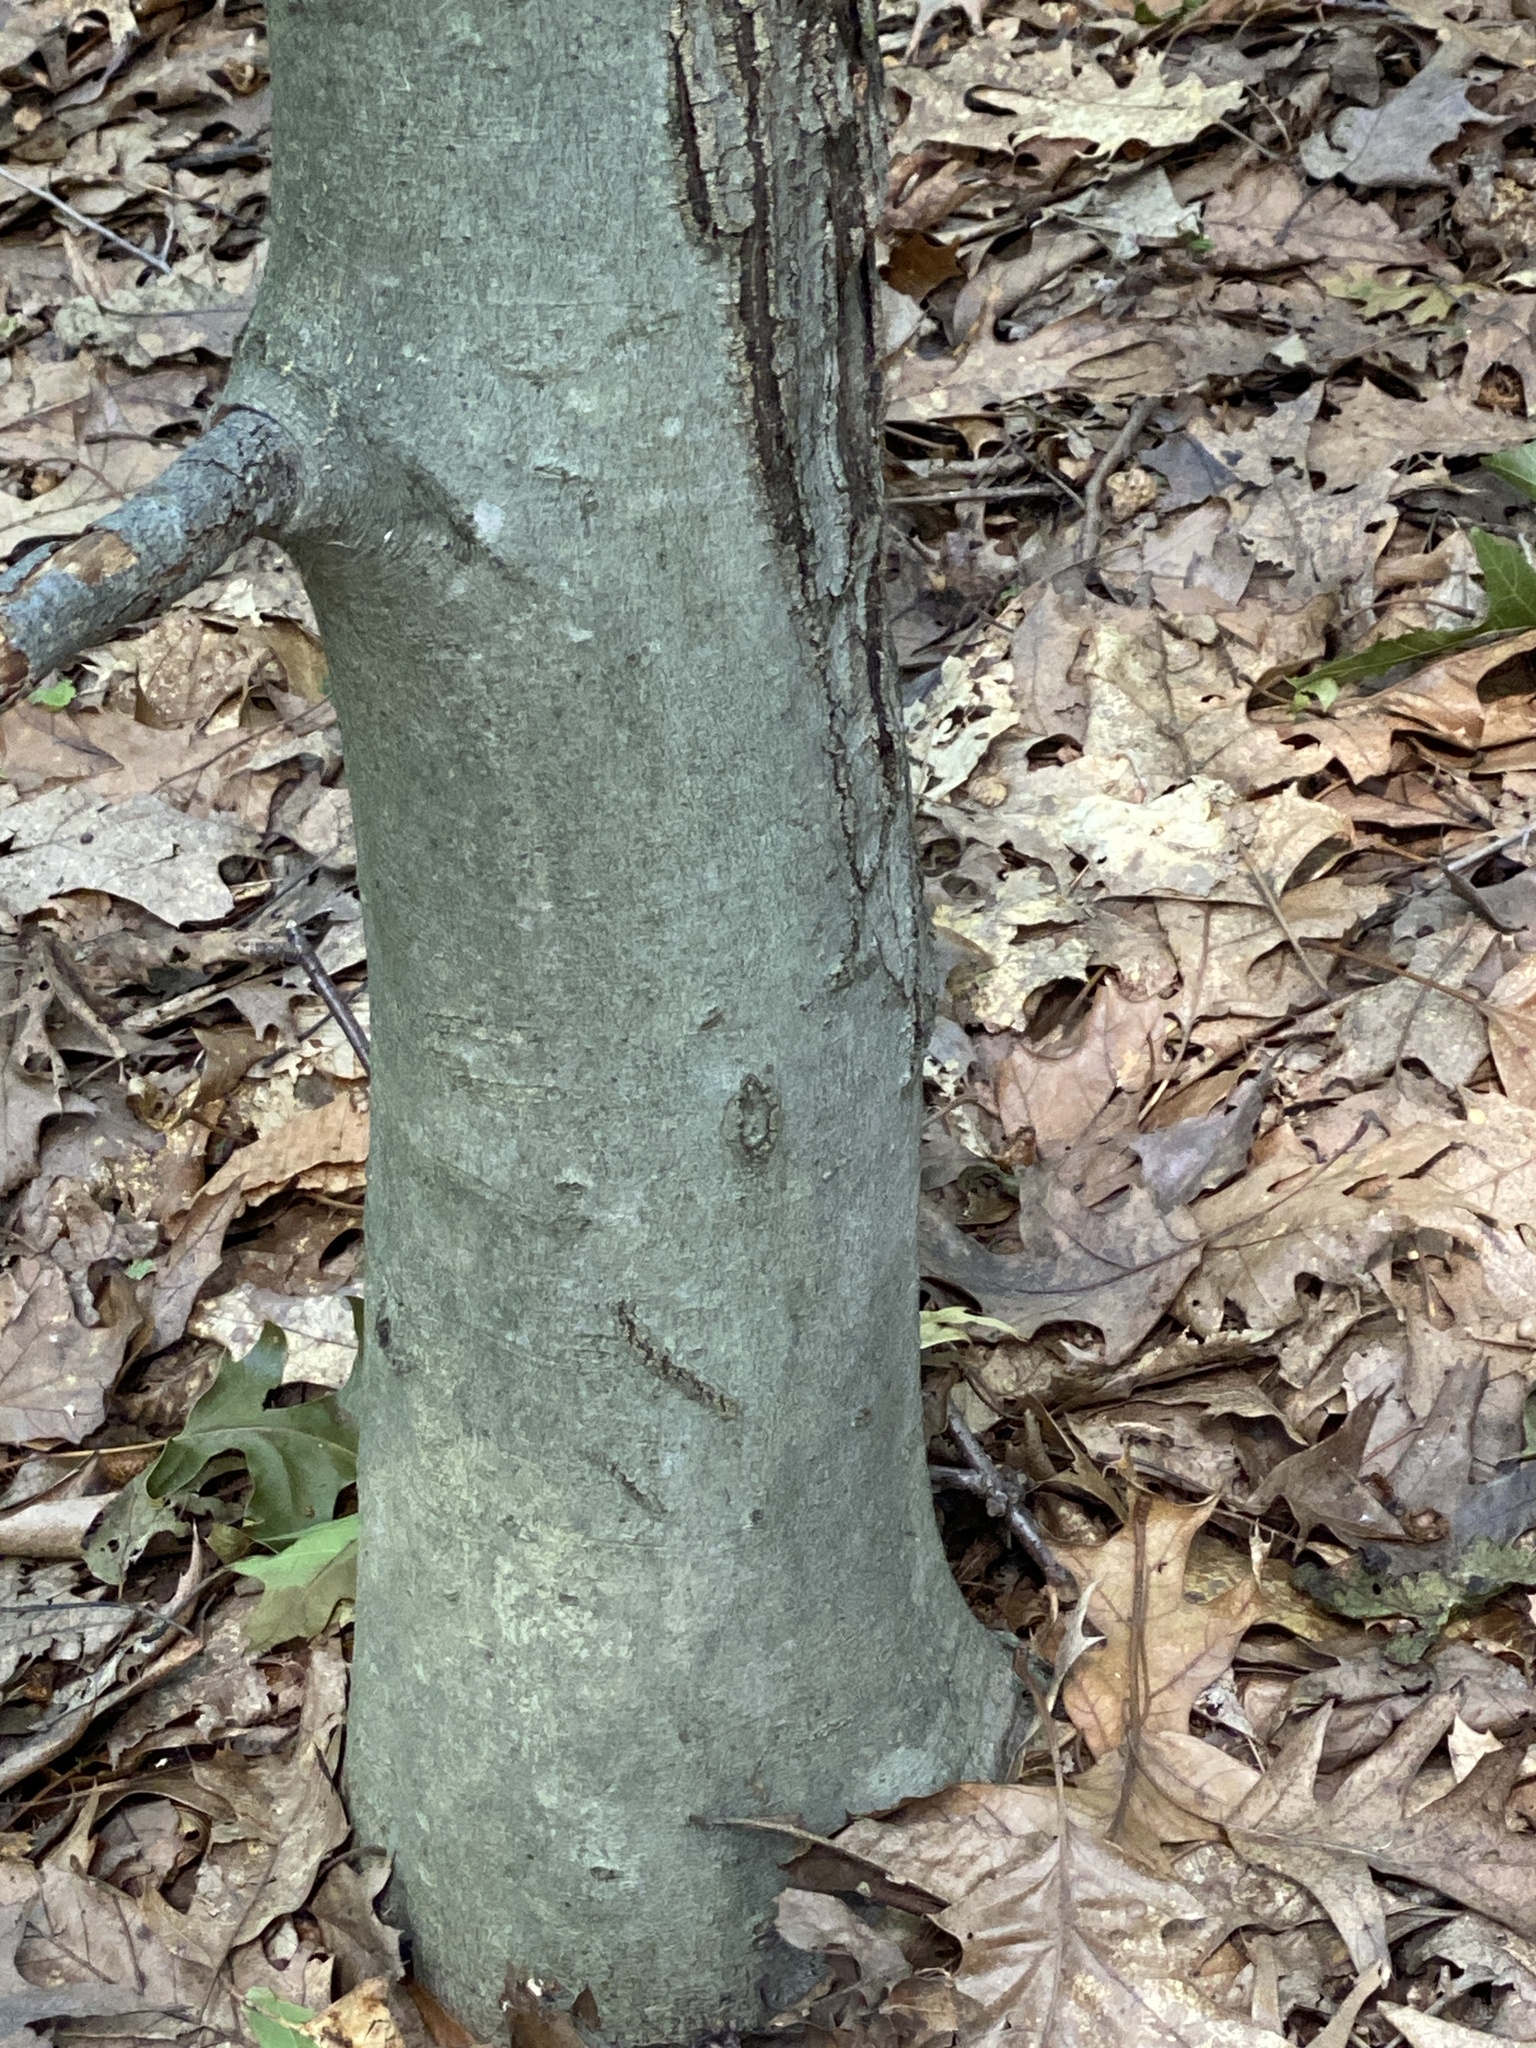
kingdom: Plantae
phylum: Tracheophyta
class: Magnoliopsida
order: Fagales
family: Fagaceae
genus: Fagus
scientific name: Fagus grandifolia
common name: American beech
